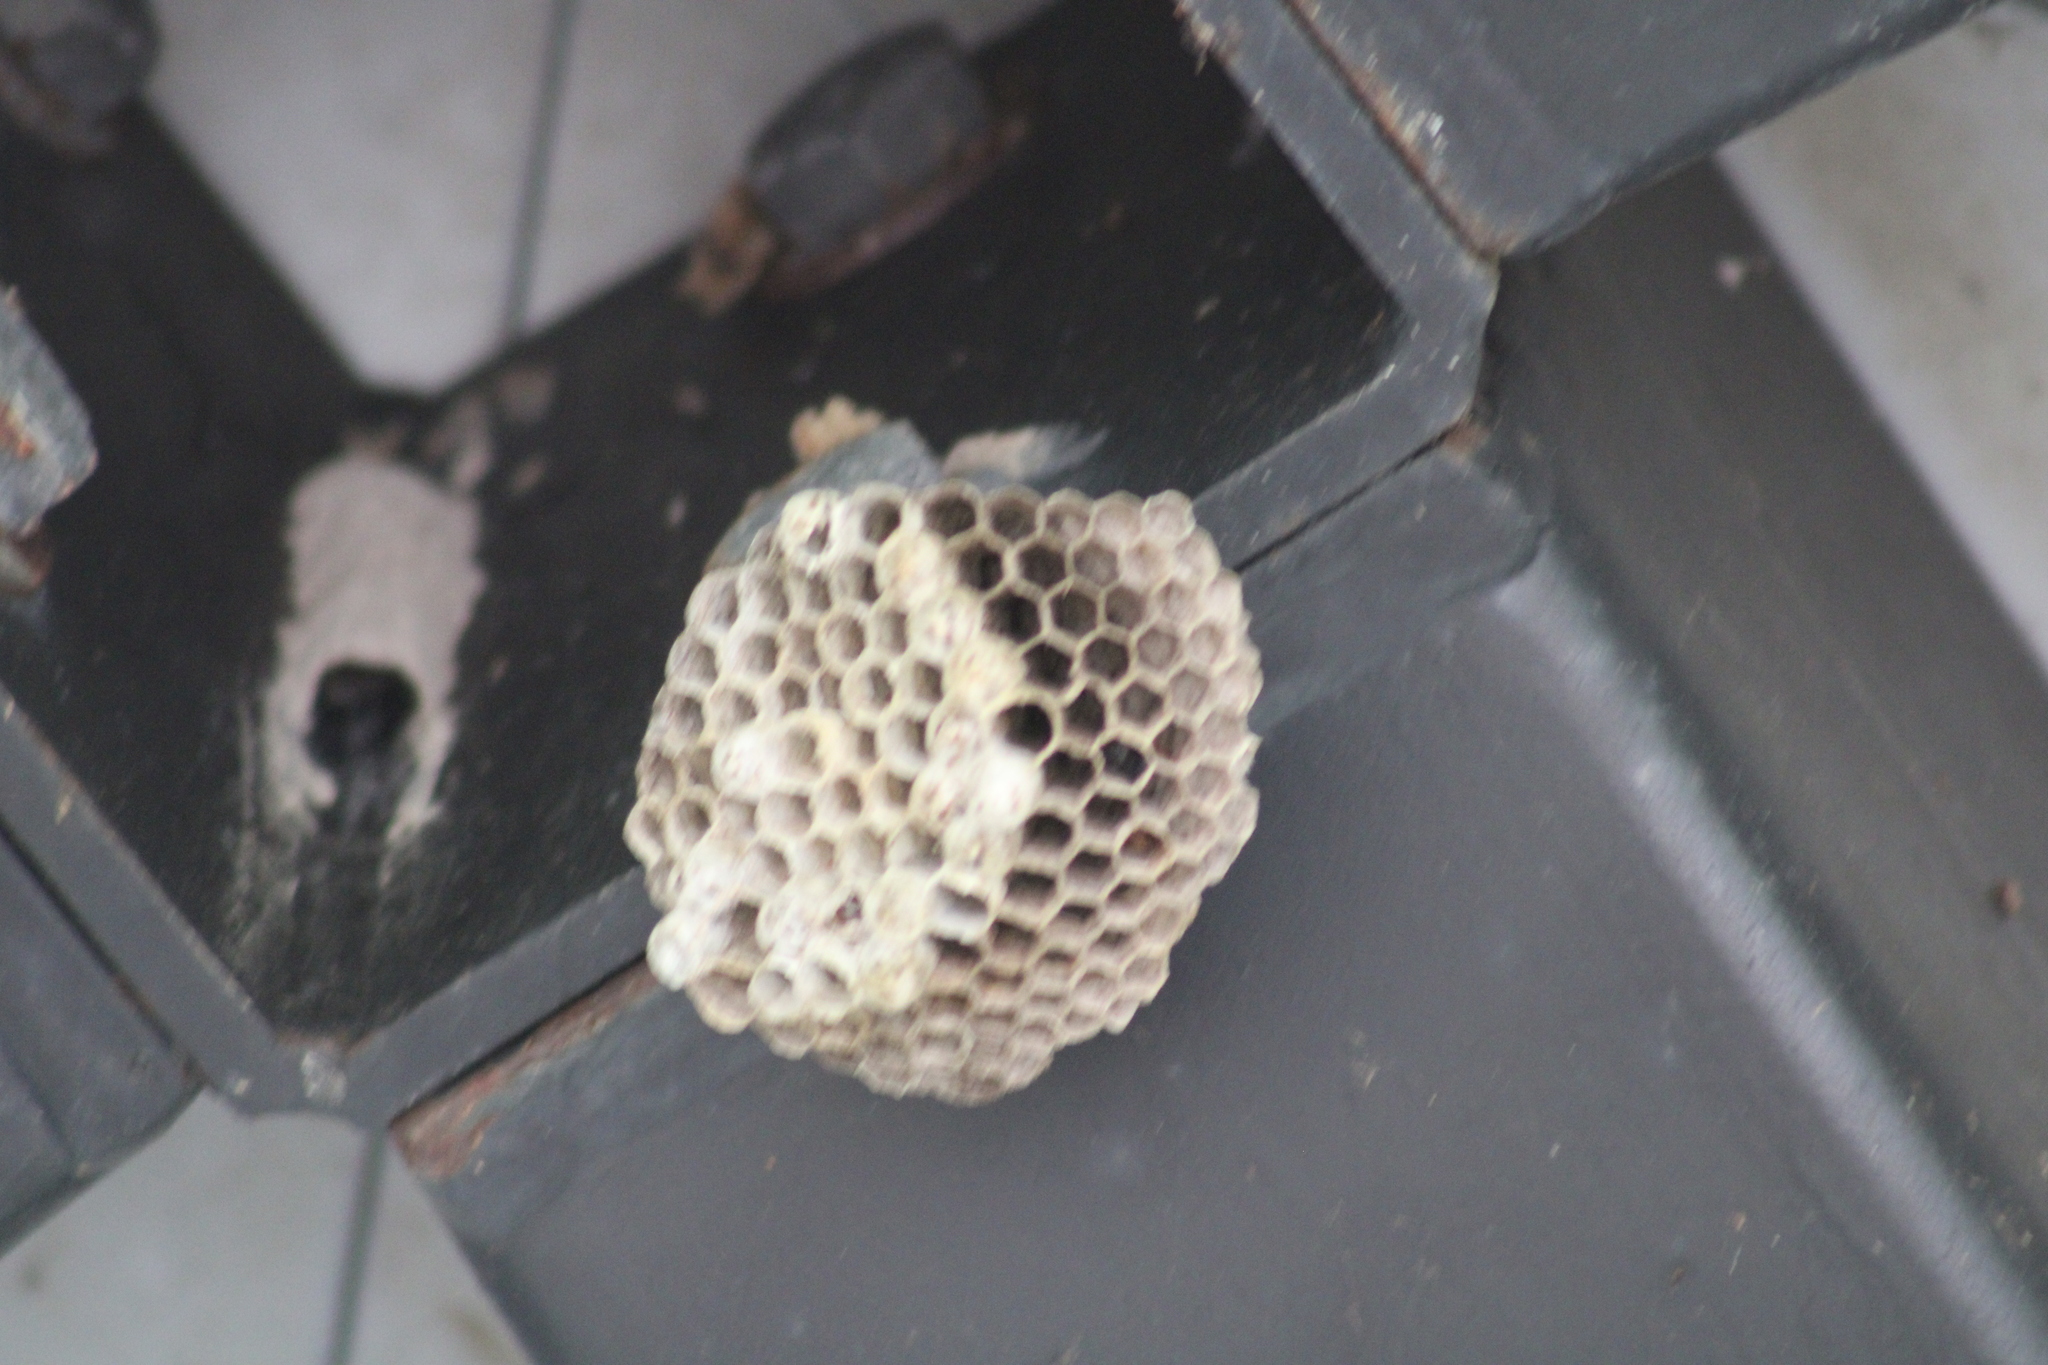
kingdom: Animalia
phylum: Arthropoda
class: Insecta
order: Hymenoptera
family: Eumenidae
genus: Polistes
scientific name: Polistes
